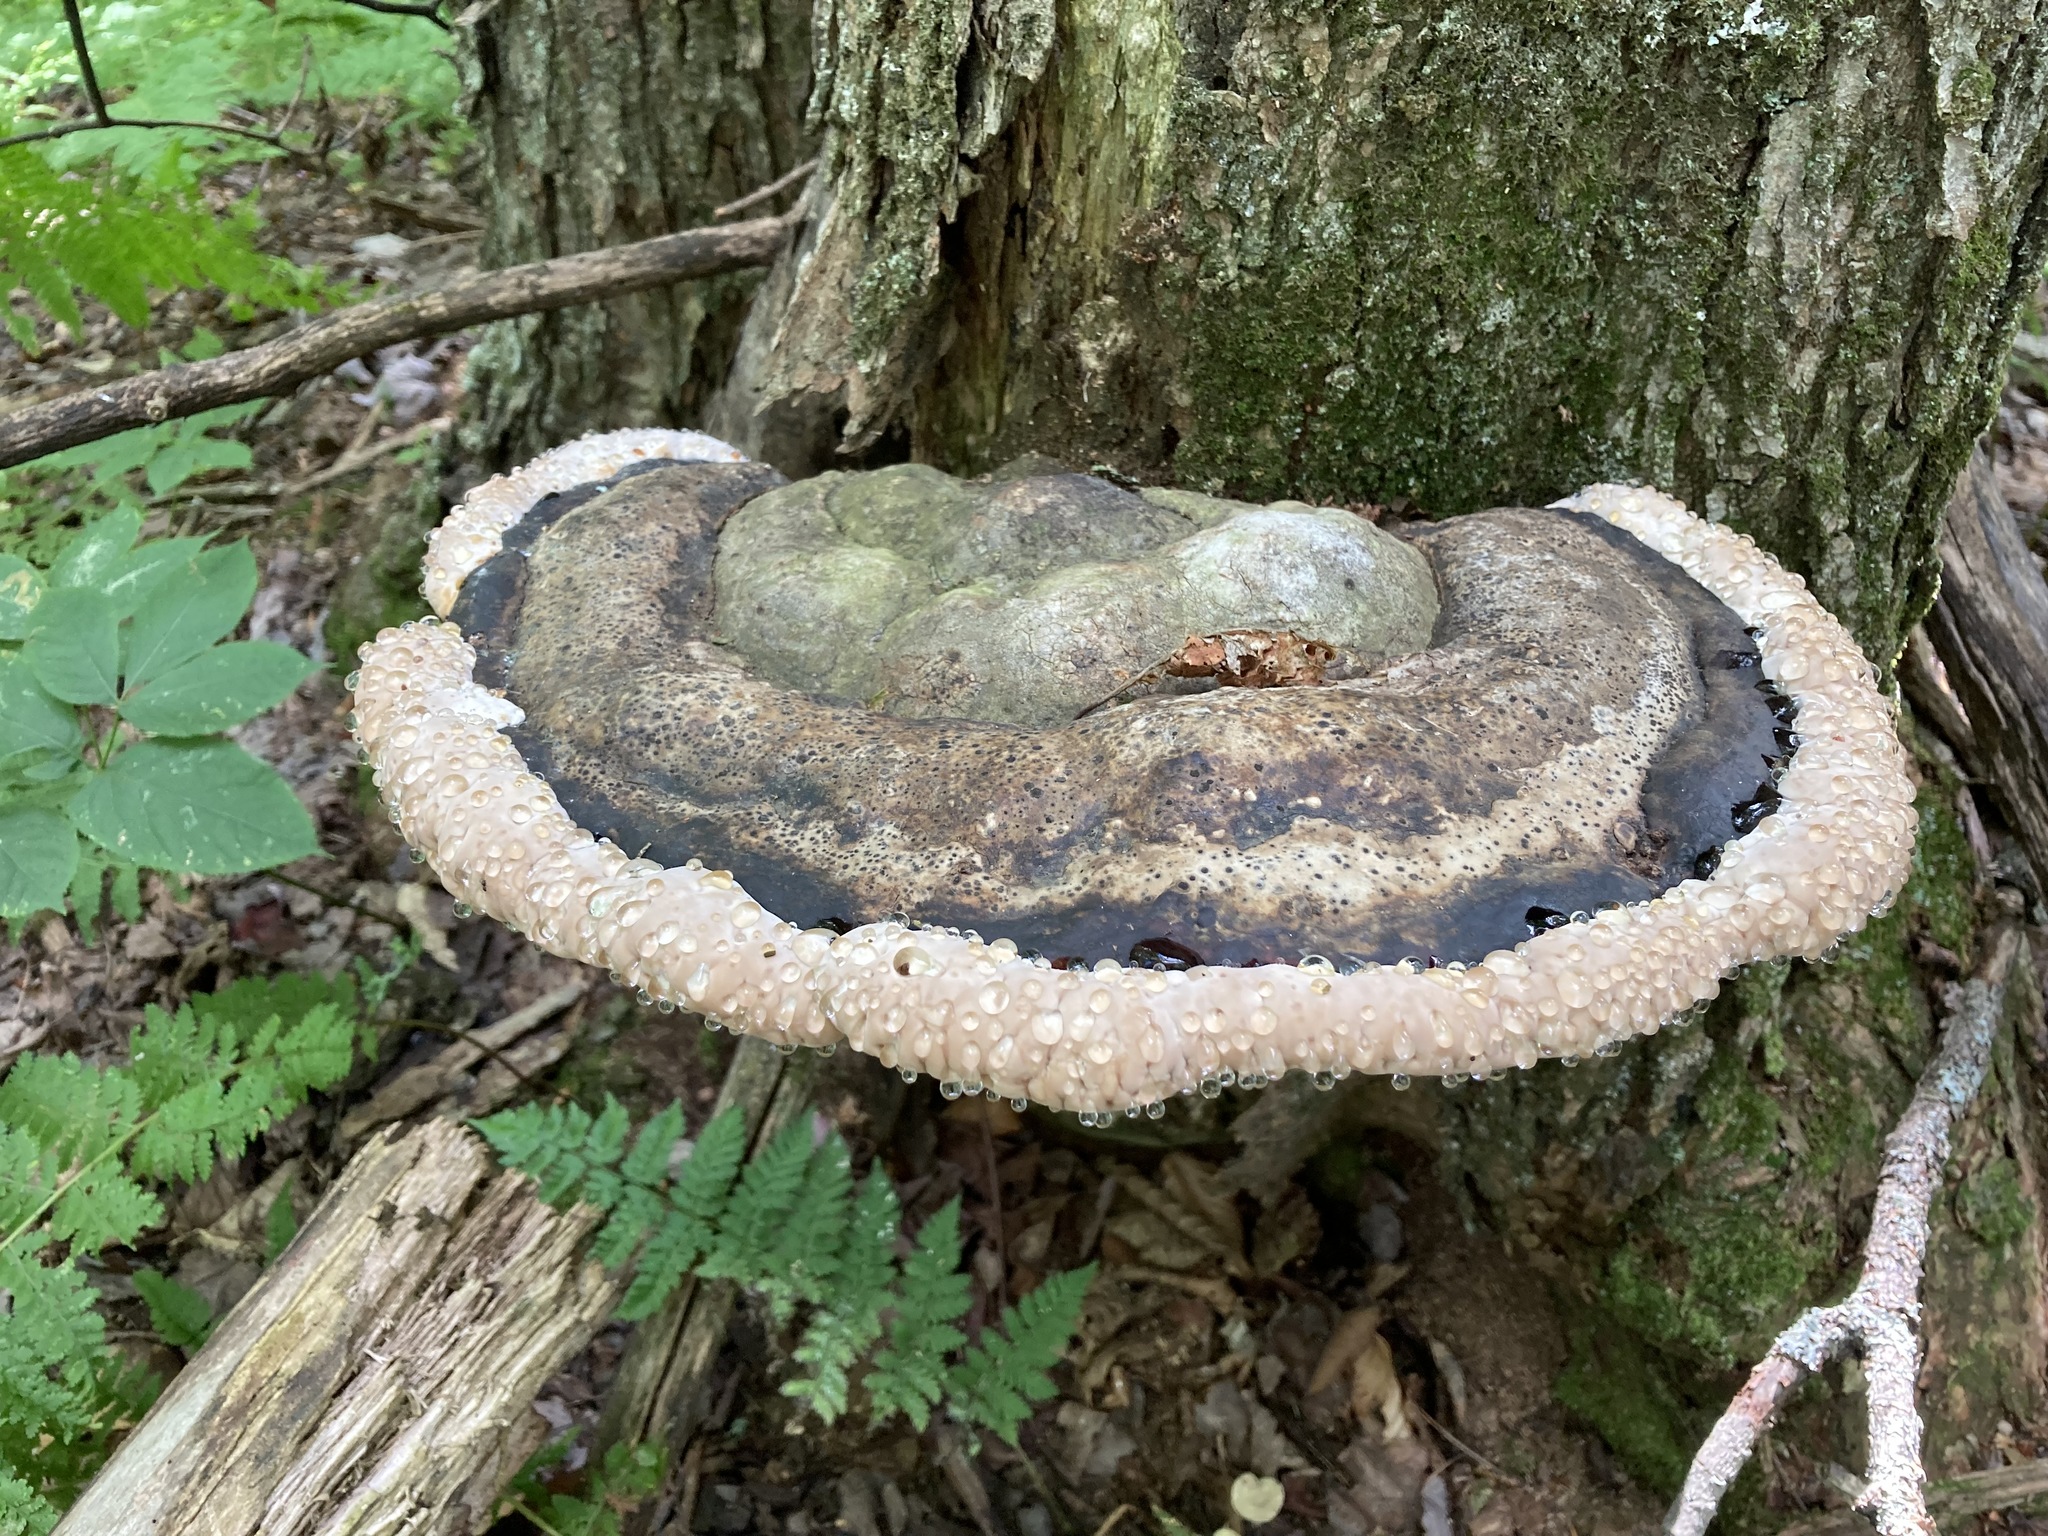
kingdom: Fungi
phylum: Basidiomycota
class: Agaricomycetes
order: Polyporales
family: Fomitopsidaceae
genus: Fomitopsis
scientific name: Fomitopsis ochracea
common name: American brown fomitopsis
